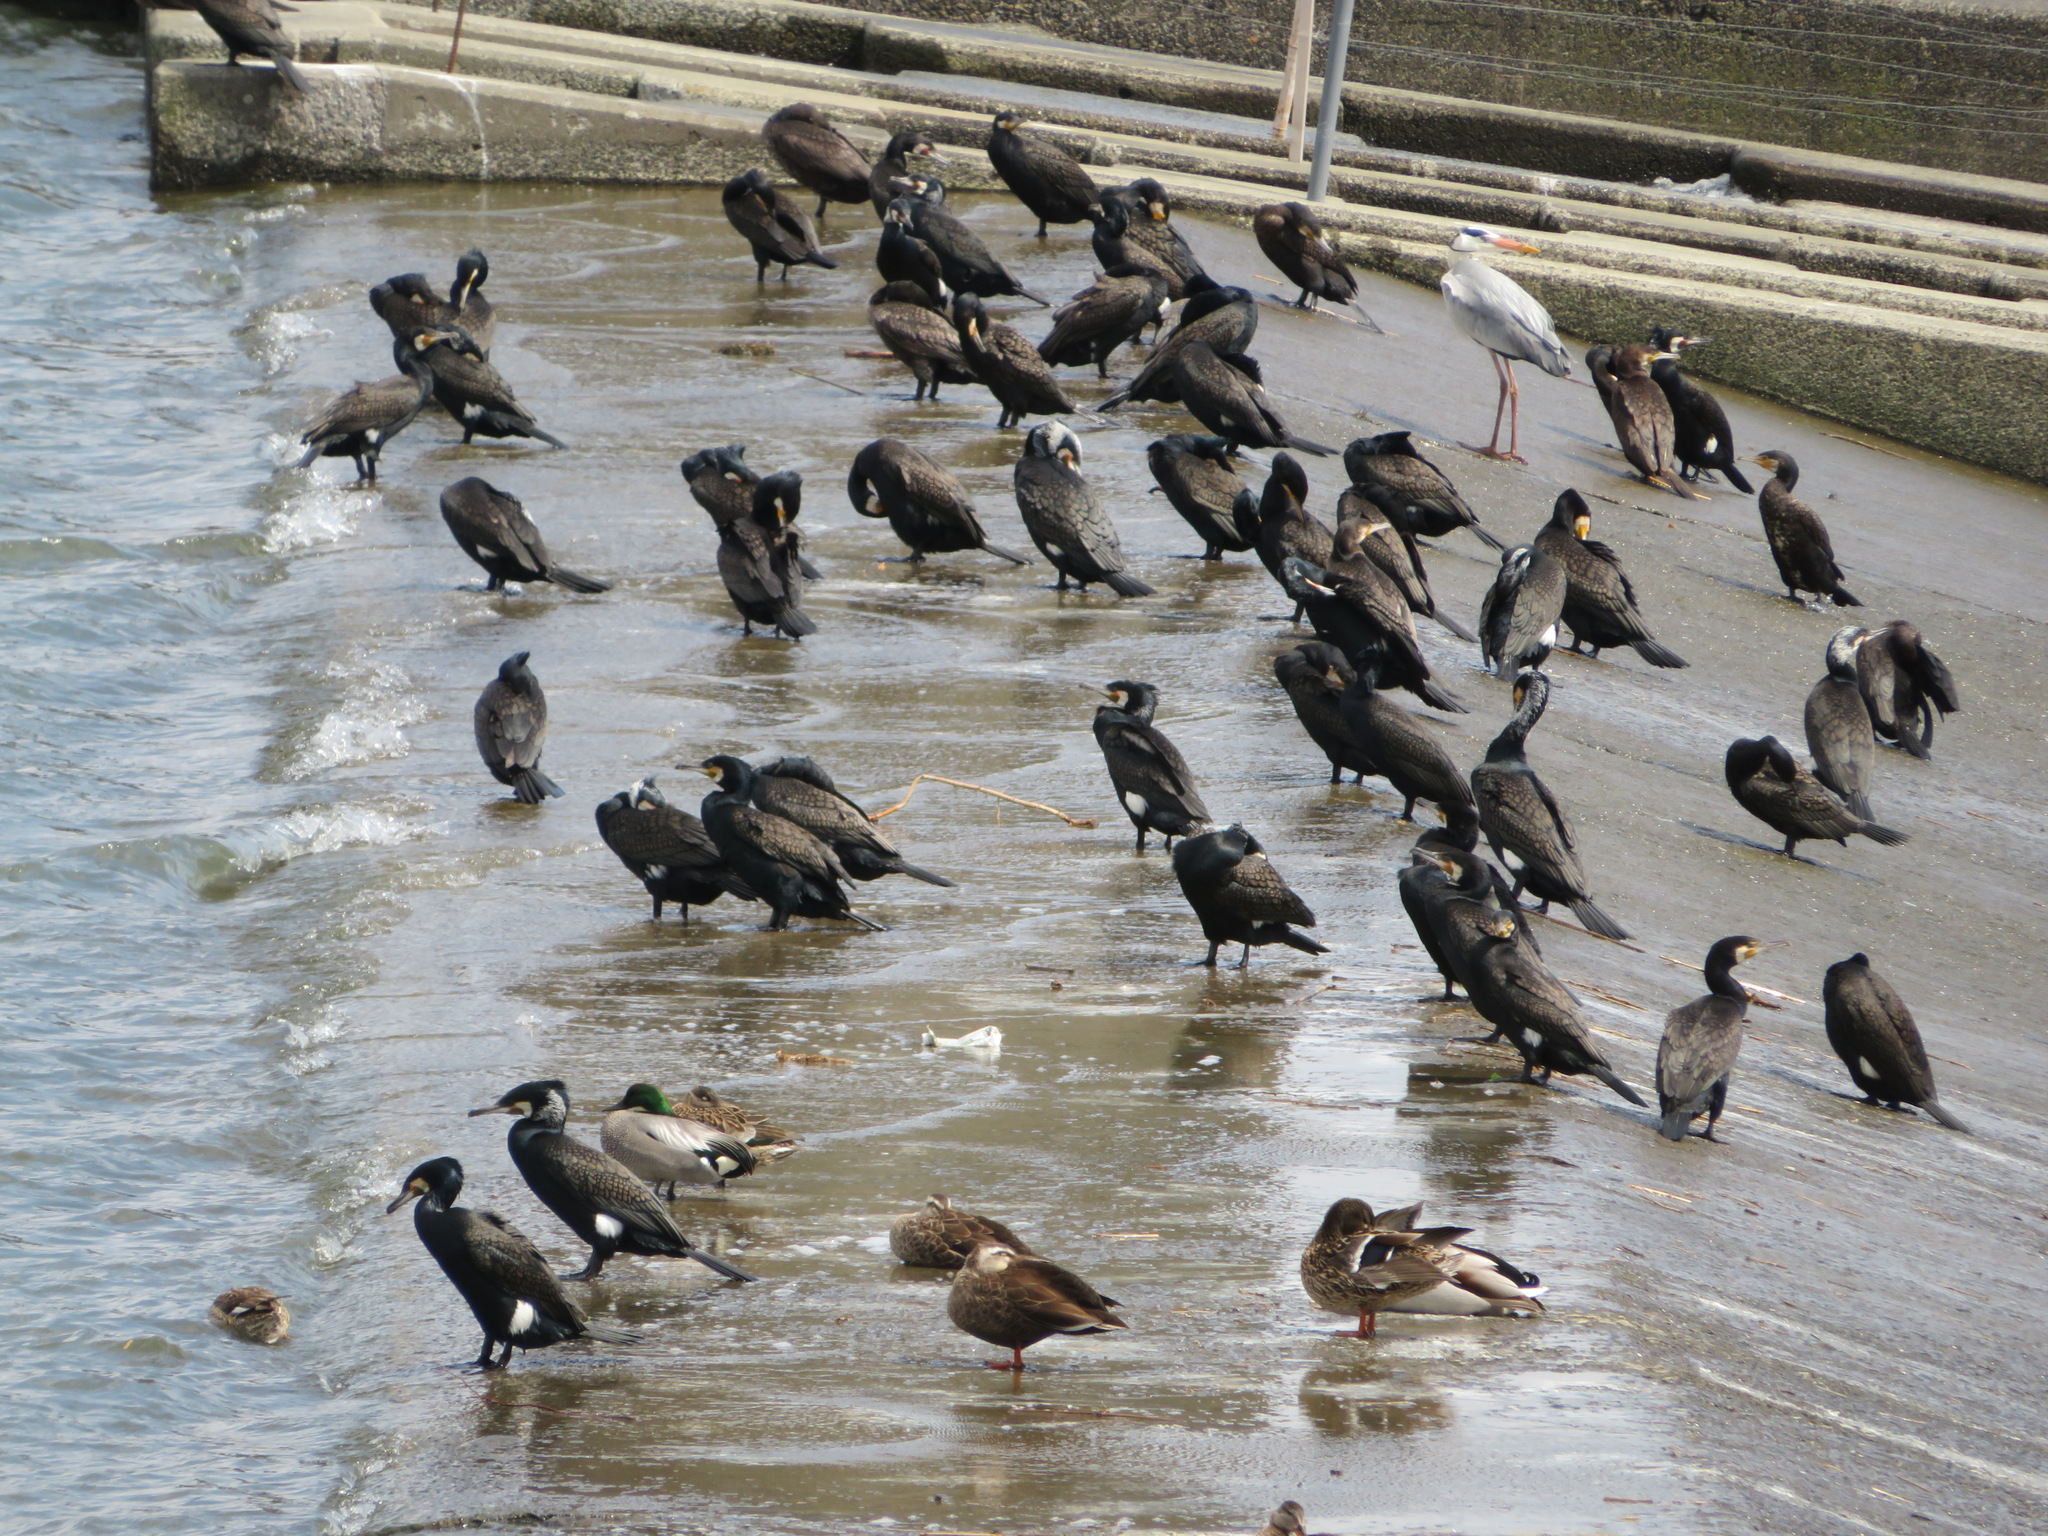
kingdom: Animalia
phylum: Chordata
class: Aves
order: Suliformes
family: Phalacrocoracidae
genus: Phalacrocorax
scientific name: Phalacrocorax carbo
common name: Great cormorant
